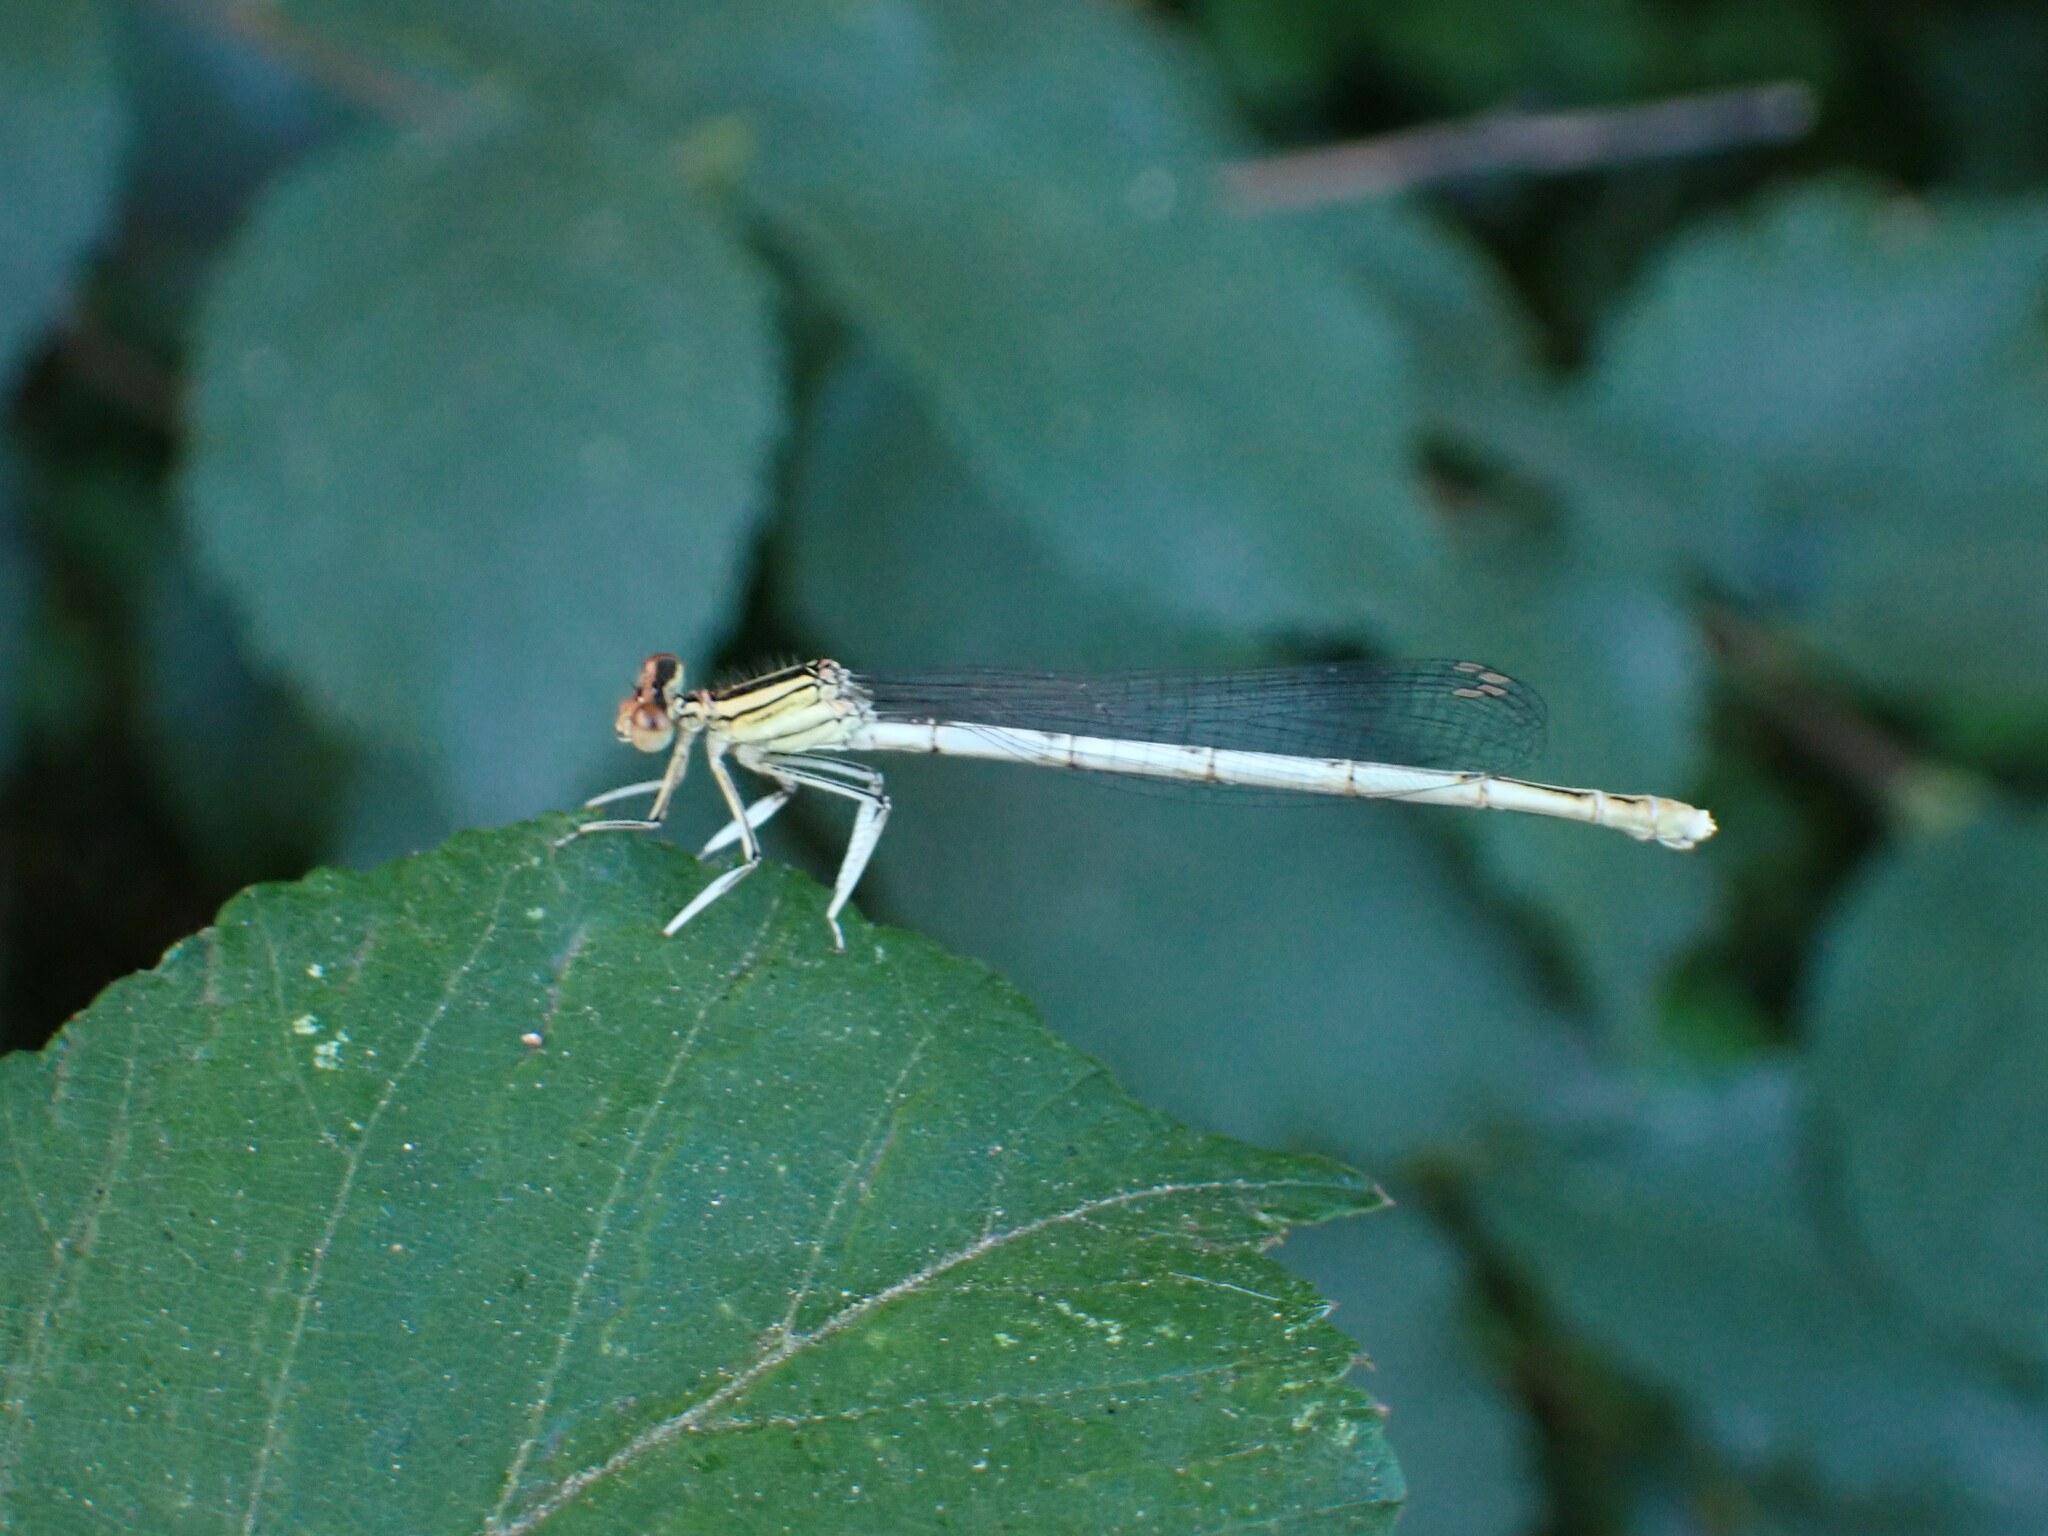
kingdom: Animalia
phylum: Arthropoda
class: Insecta
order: Odonata
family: Platycnemididae
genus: Platycnemis
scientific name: Platycnemis latipes
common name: White featherleg
